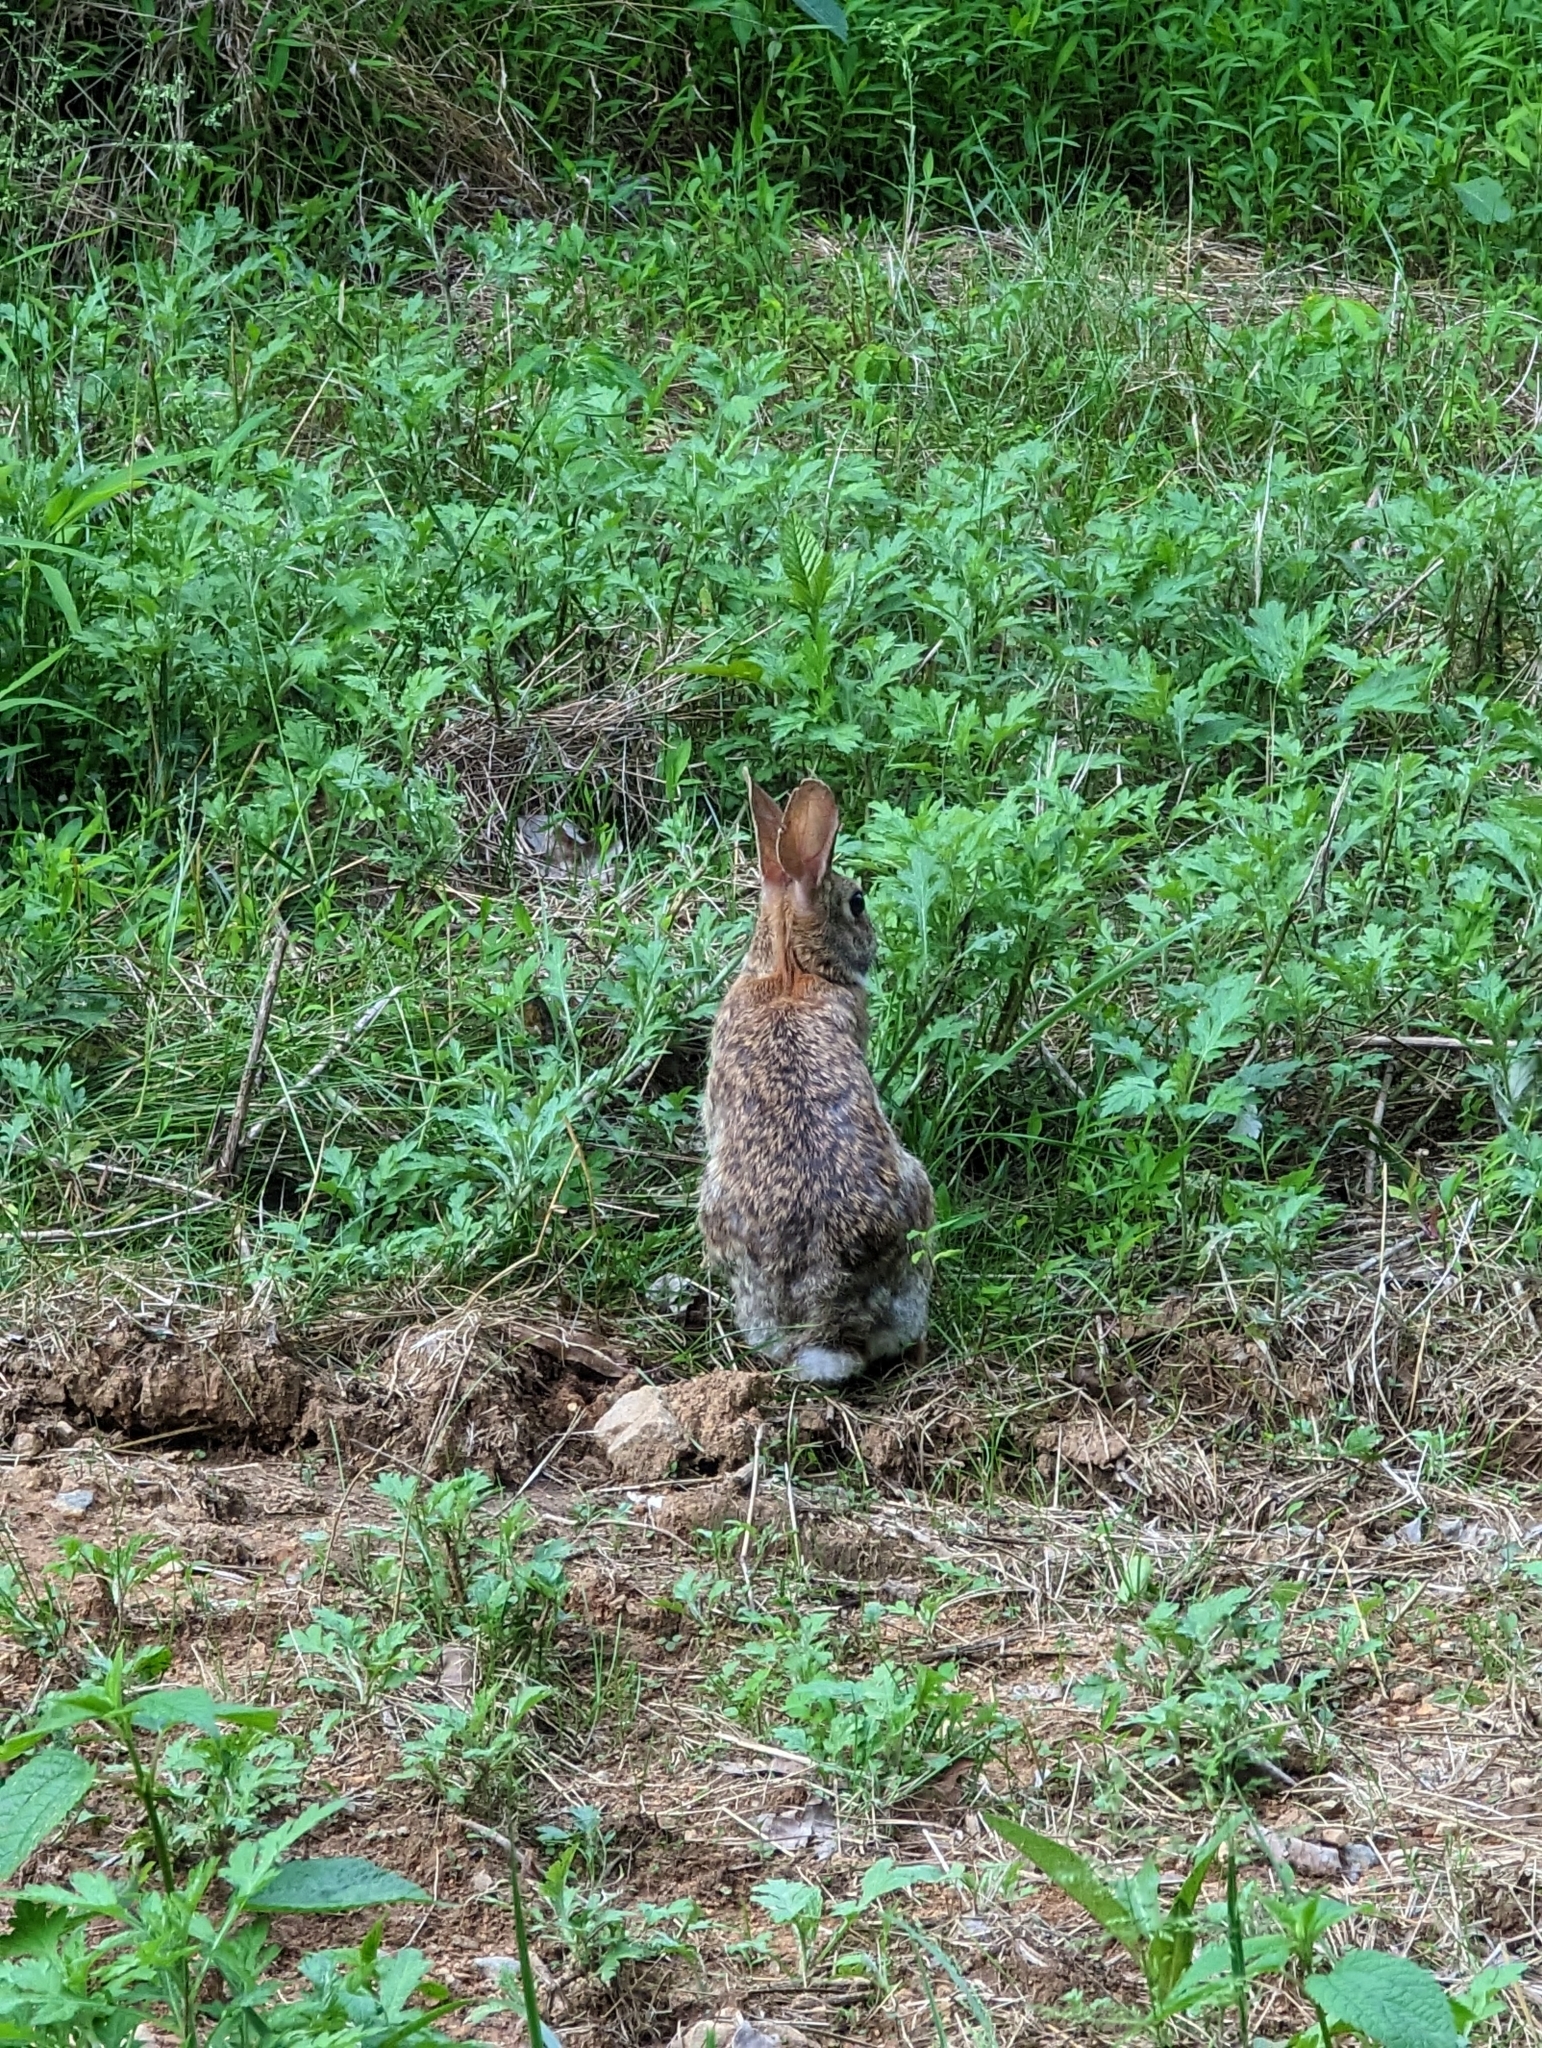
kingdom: Animalia
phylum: Chordata
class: Mammalia
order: Lagomorpha
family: Leporidae
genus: Sylvilagus
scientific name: Sylvilagus floridanus
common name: Eastern cottontail
